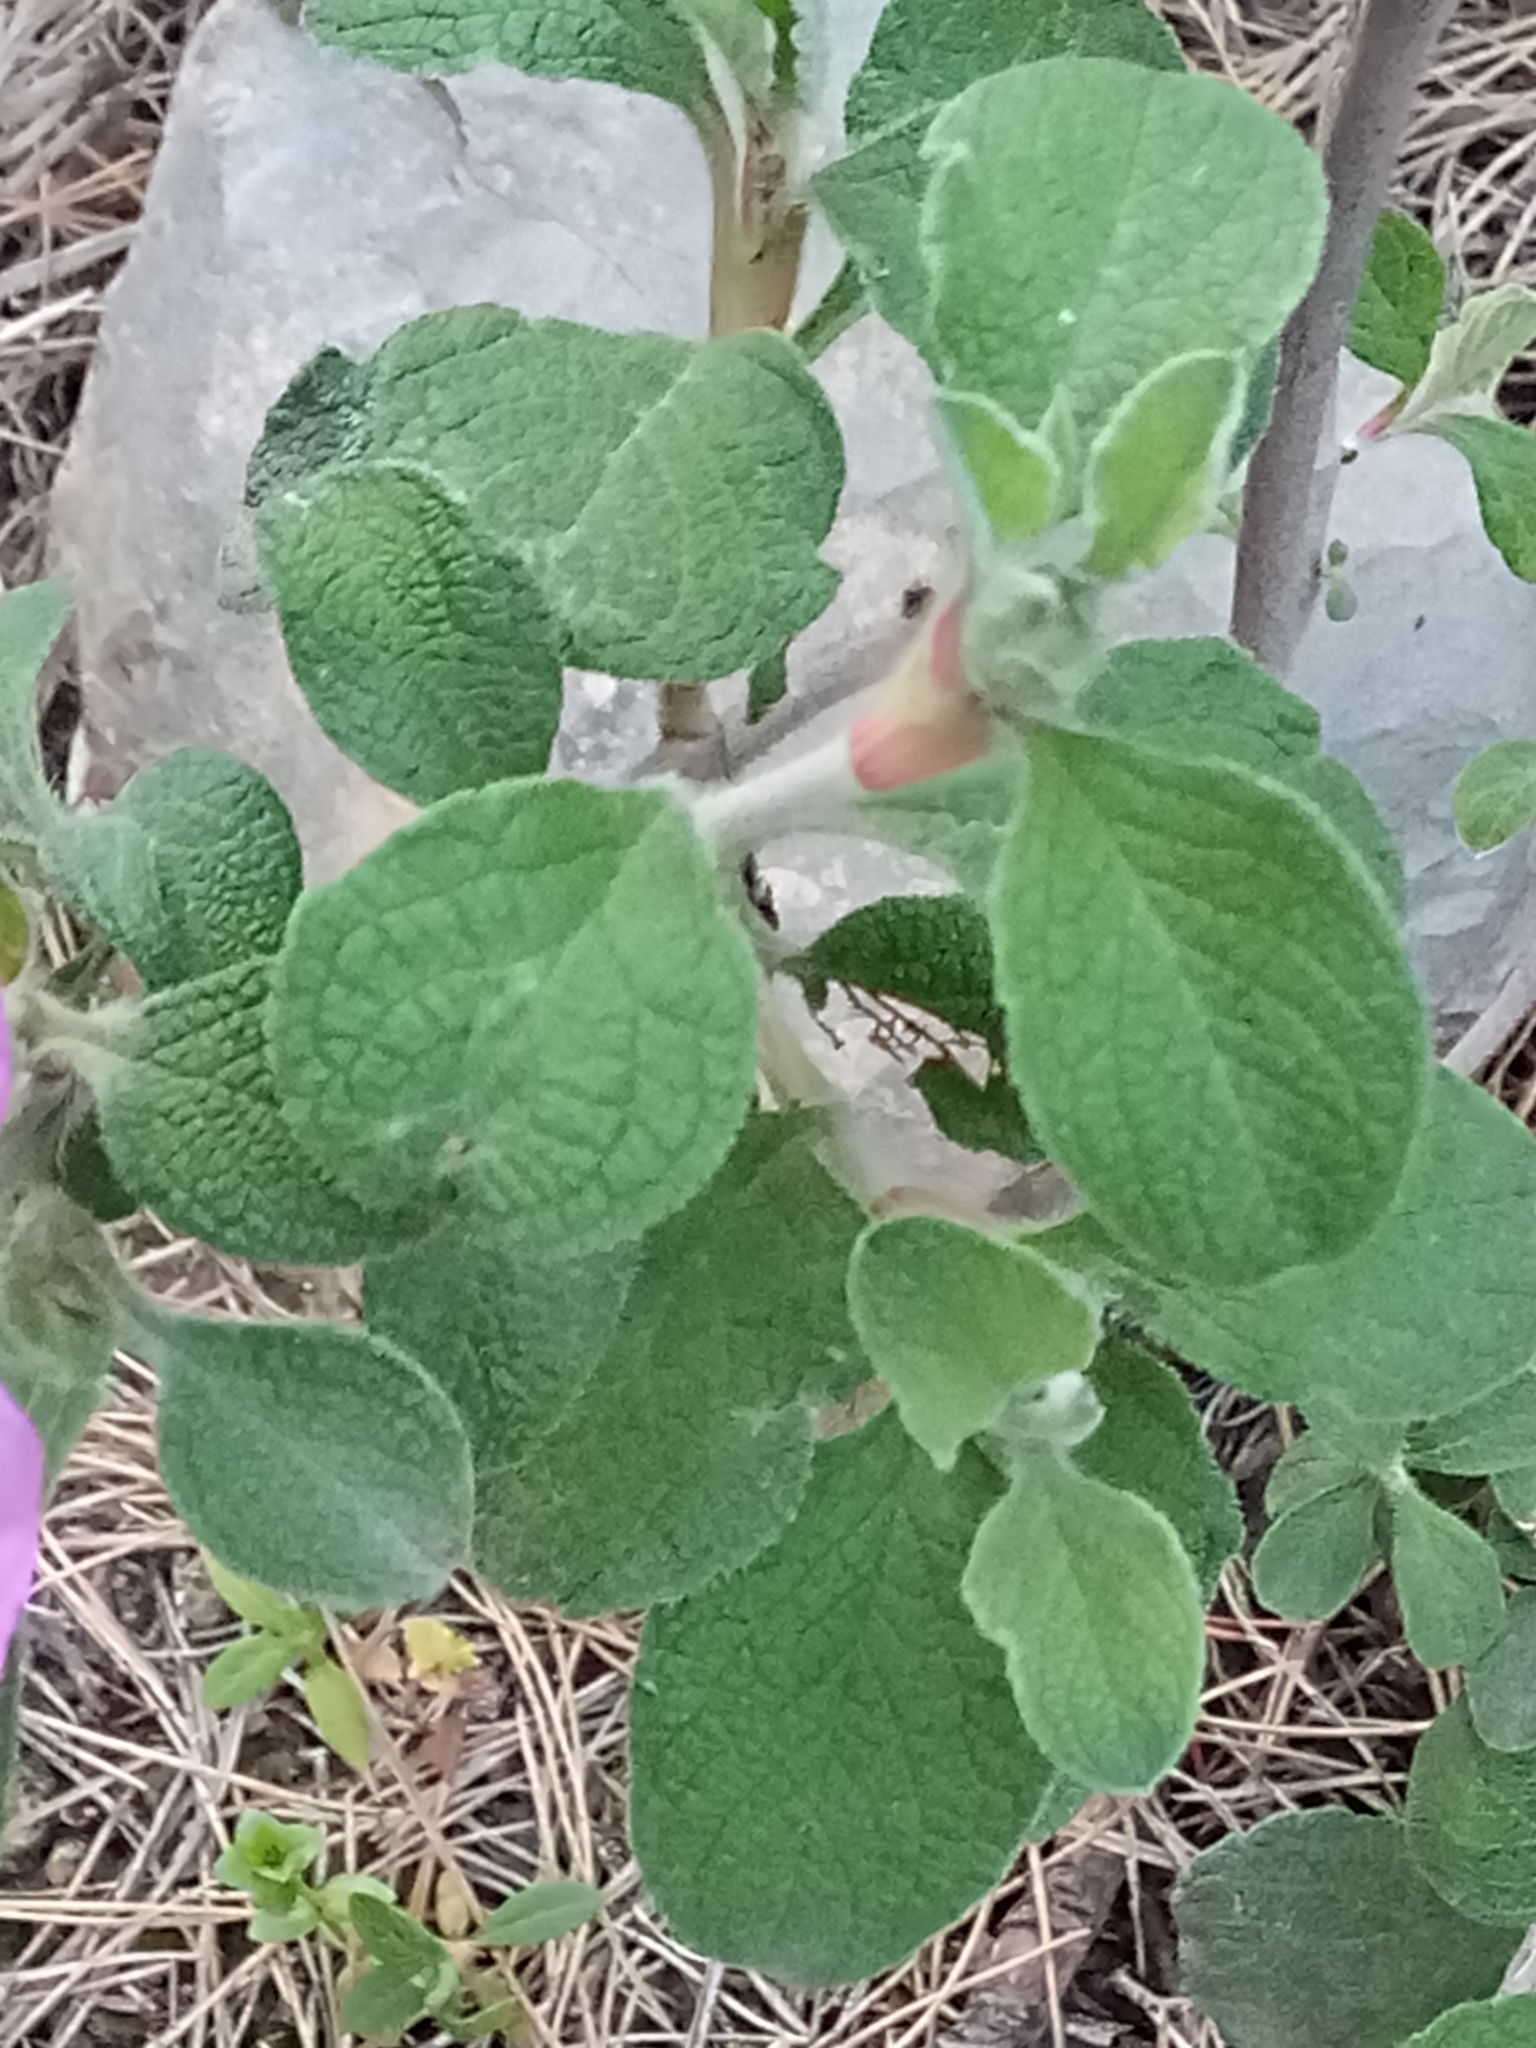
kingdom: Plantae
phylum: Tracheophyta
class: Magnoliopsida
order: Malvales
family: Cistaceae
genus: Cistus
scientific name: Cistus creticus
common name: Cretan rockrose
